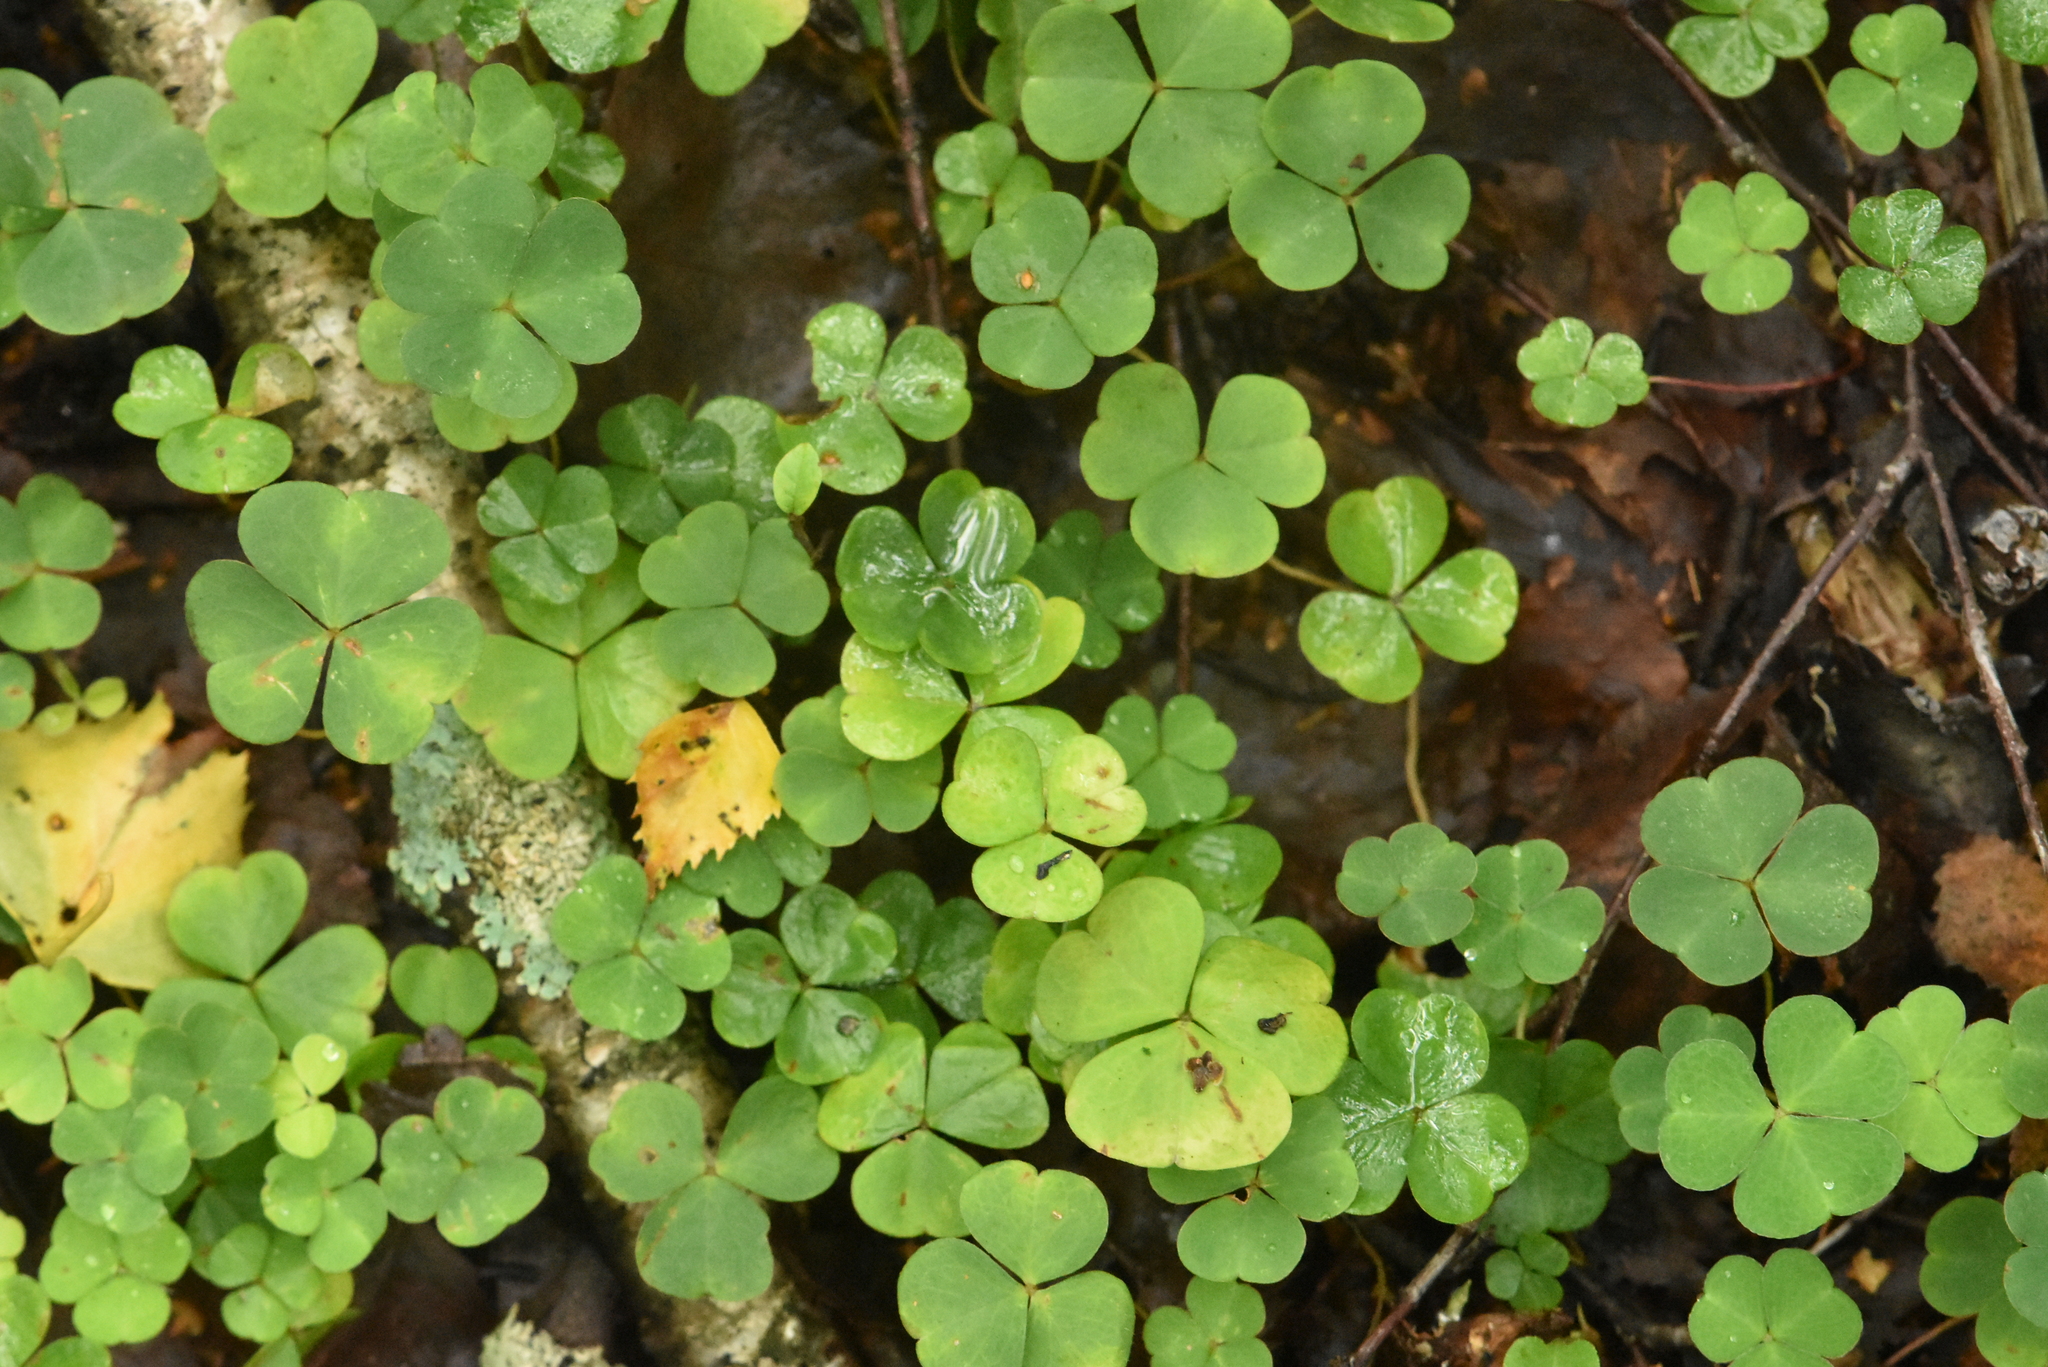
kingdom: Plantae
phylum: Tracheophyta
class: Magnoliopsida
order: Oxalidales
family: Oxalidaceae
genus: Oxalis
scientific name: Oxalis acetosella
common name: Wood-sorrel
